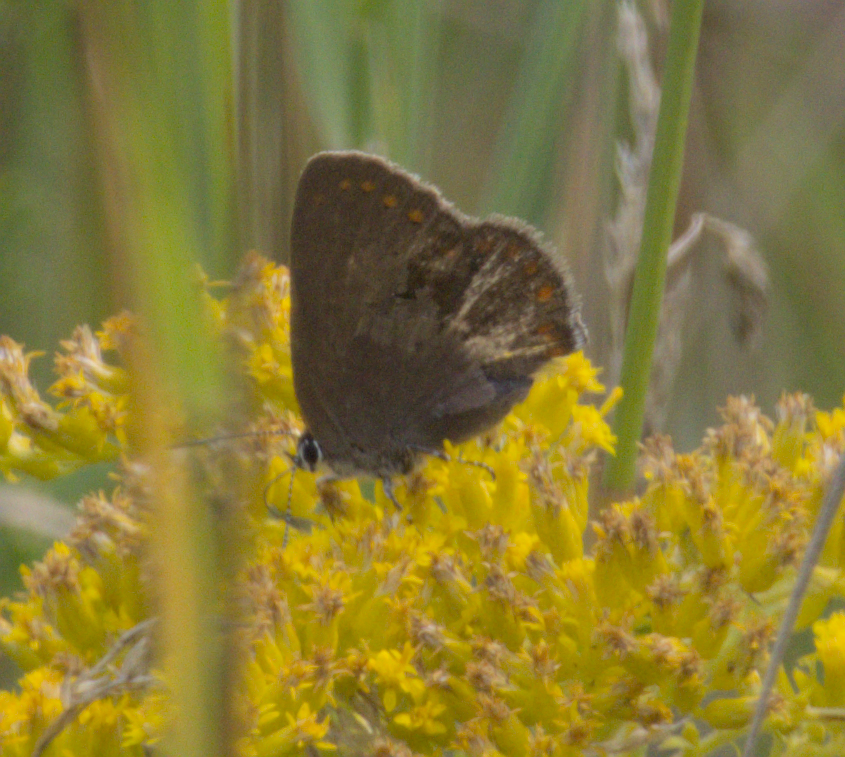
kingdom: Animalia
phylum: Arthropoda
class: Insecta
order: Lepidoptera
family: Lycaenidae
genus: Harkenclenus
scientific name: Harkenclenus titus
